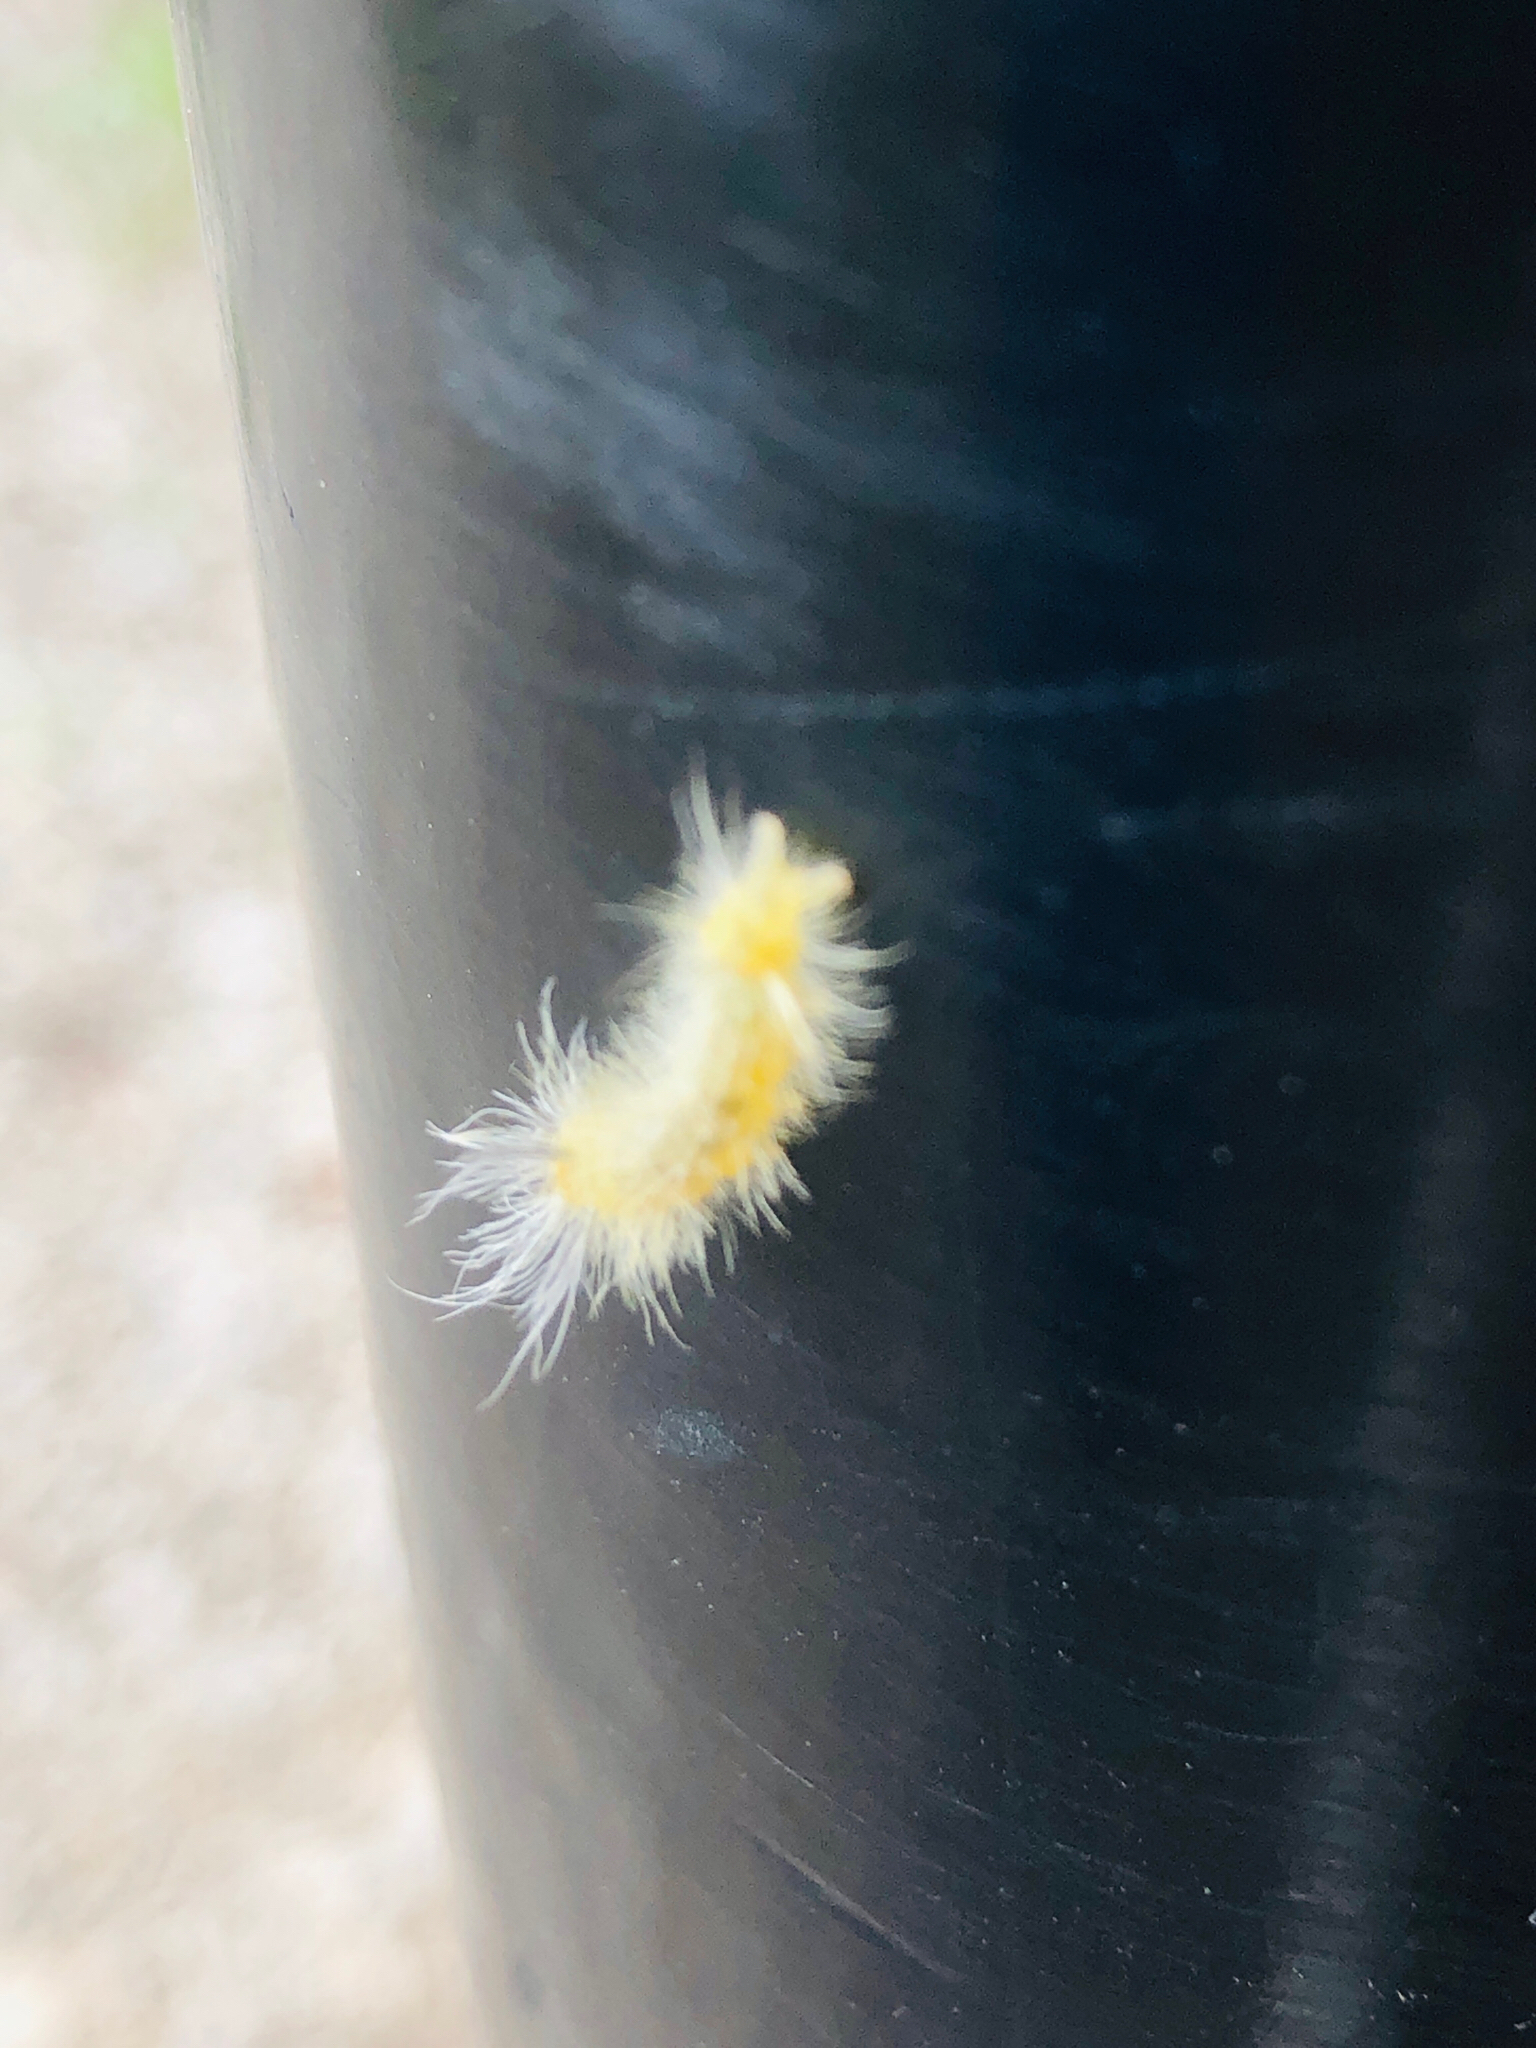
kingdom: Animalia
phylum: Arthropoda
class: Insecta
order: Lepidoptera
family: Erebidae
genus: Halysidota
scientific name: Halysidota tessellaris
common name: Banded tussock moth
